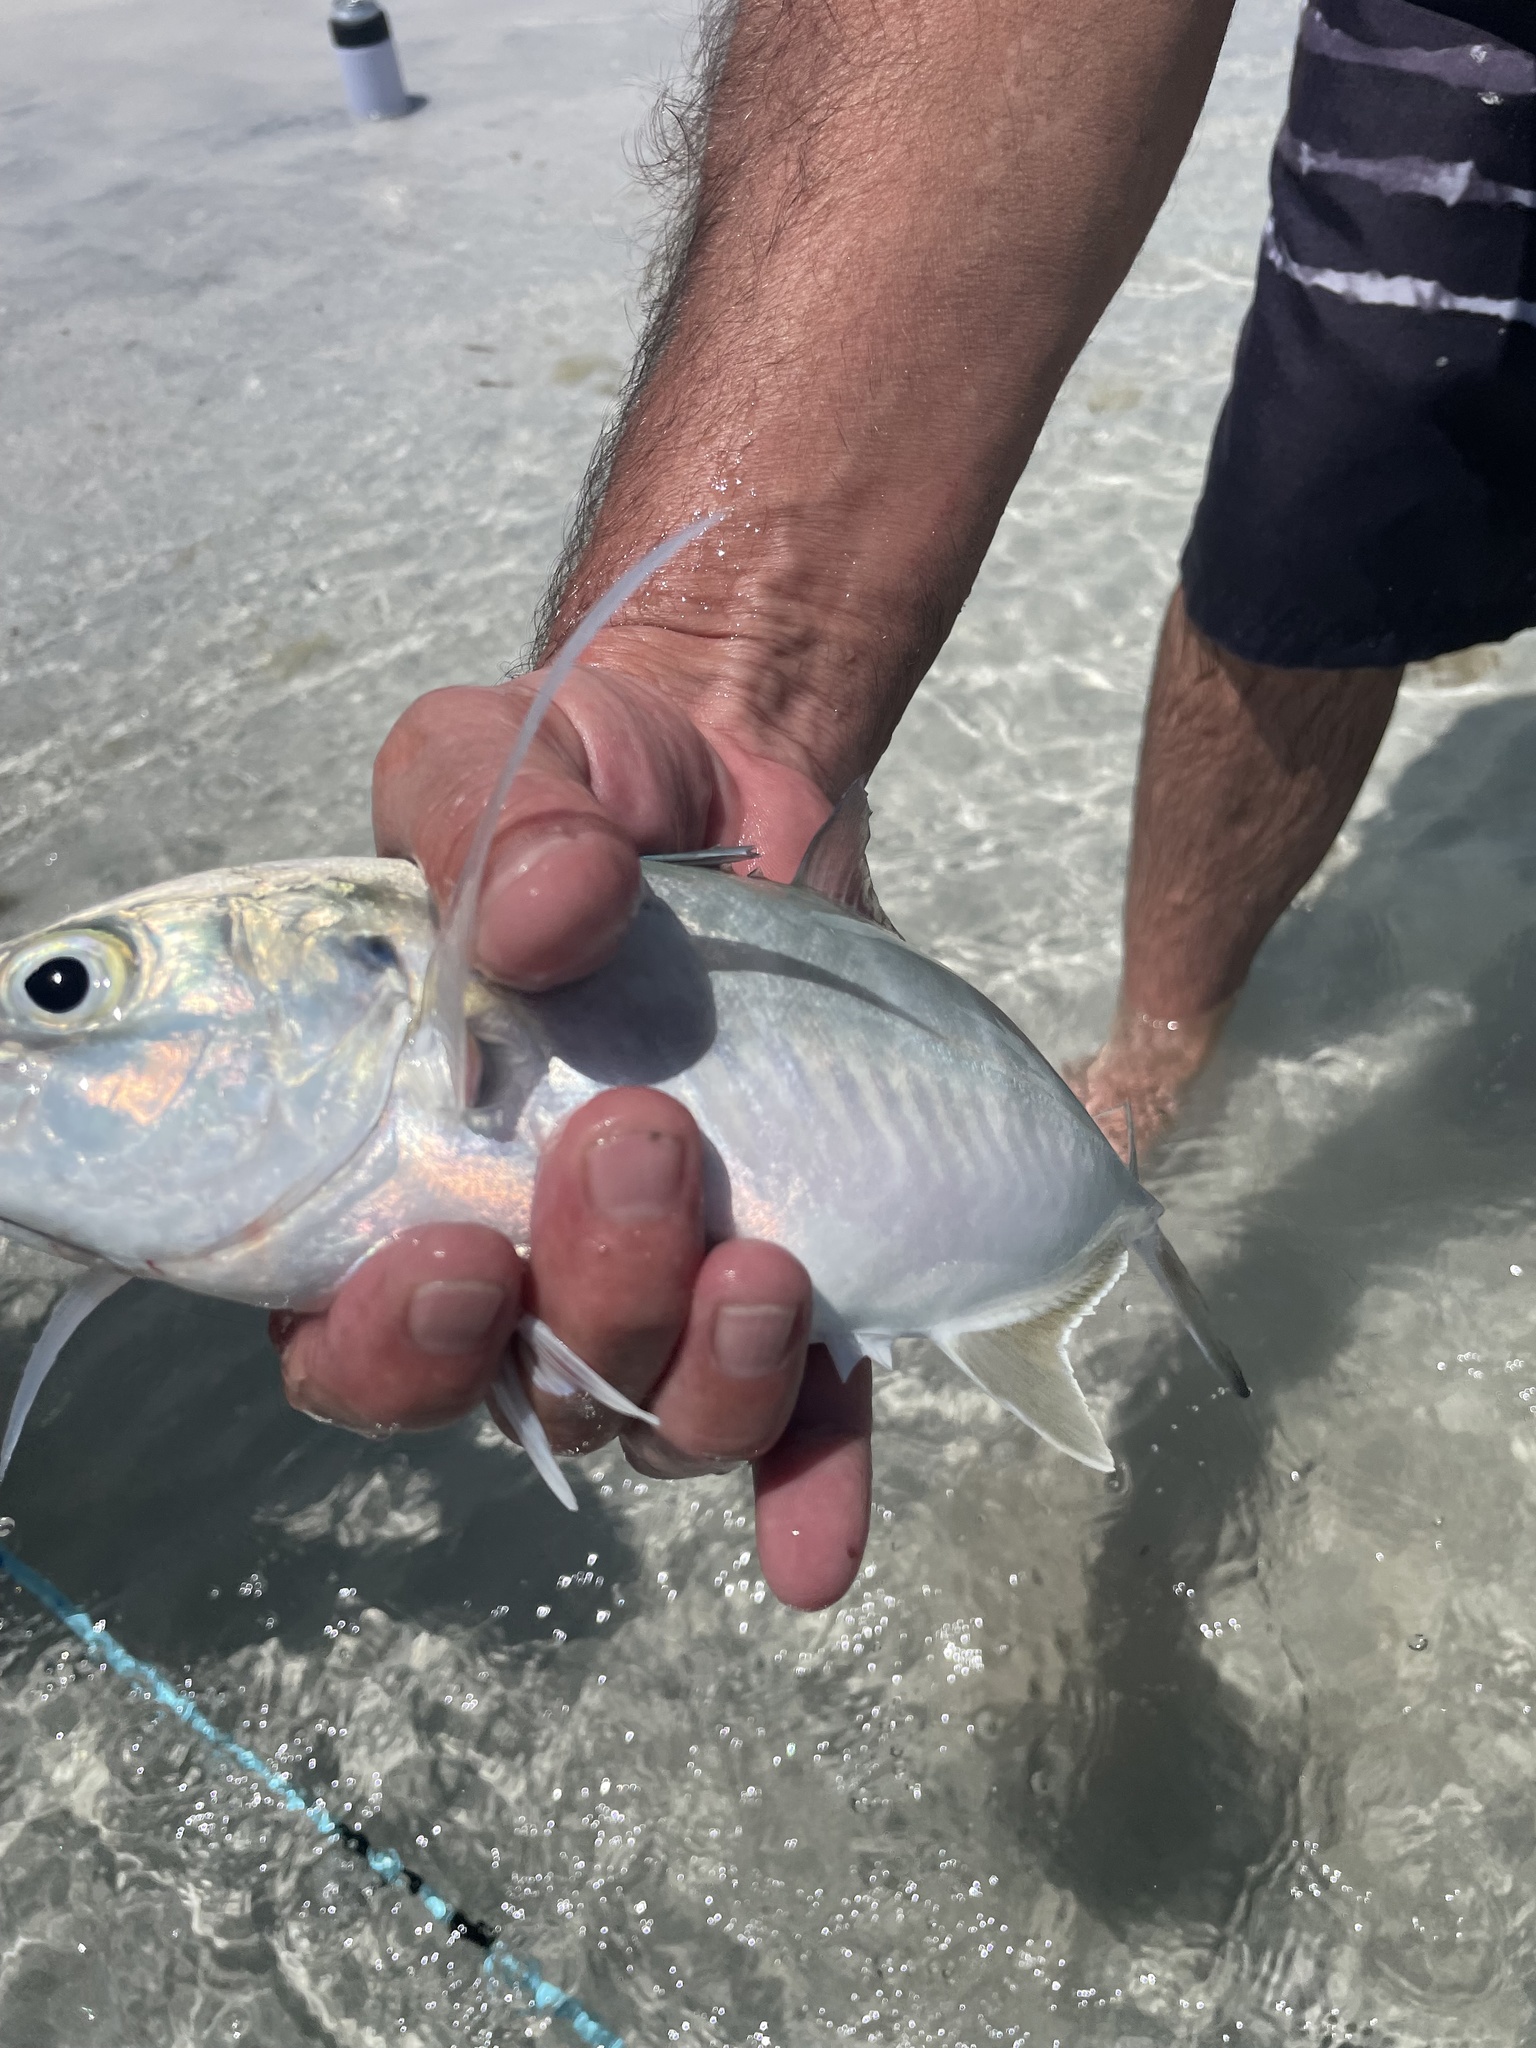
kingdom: Animalia
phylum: Chordata
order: Perciformes
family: Carangidae
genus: Caranx
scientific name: Caranx crysos
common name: Blue runner
